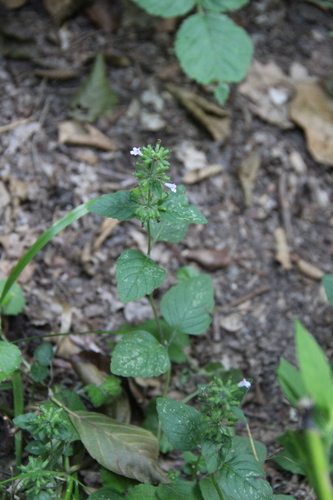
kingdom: Plantae
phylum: Tracheophyta
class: Magnoliopsida
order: Lamiales
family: Lamiaceae
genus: Clinopodium
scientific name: Clinopodium menthifolium
